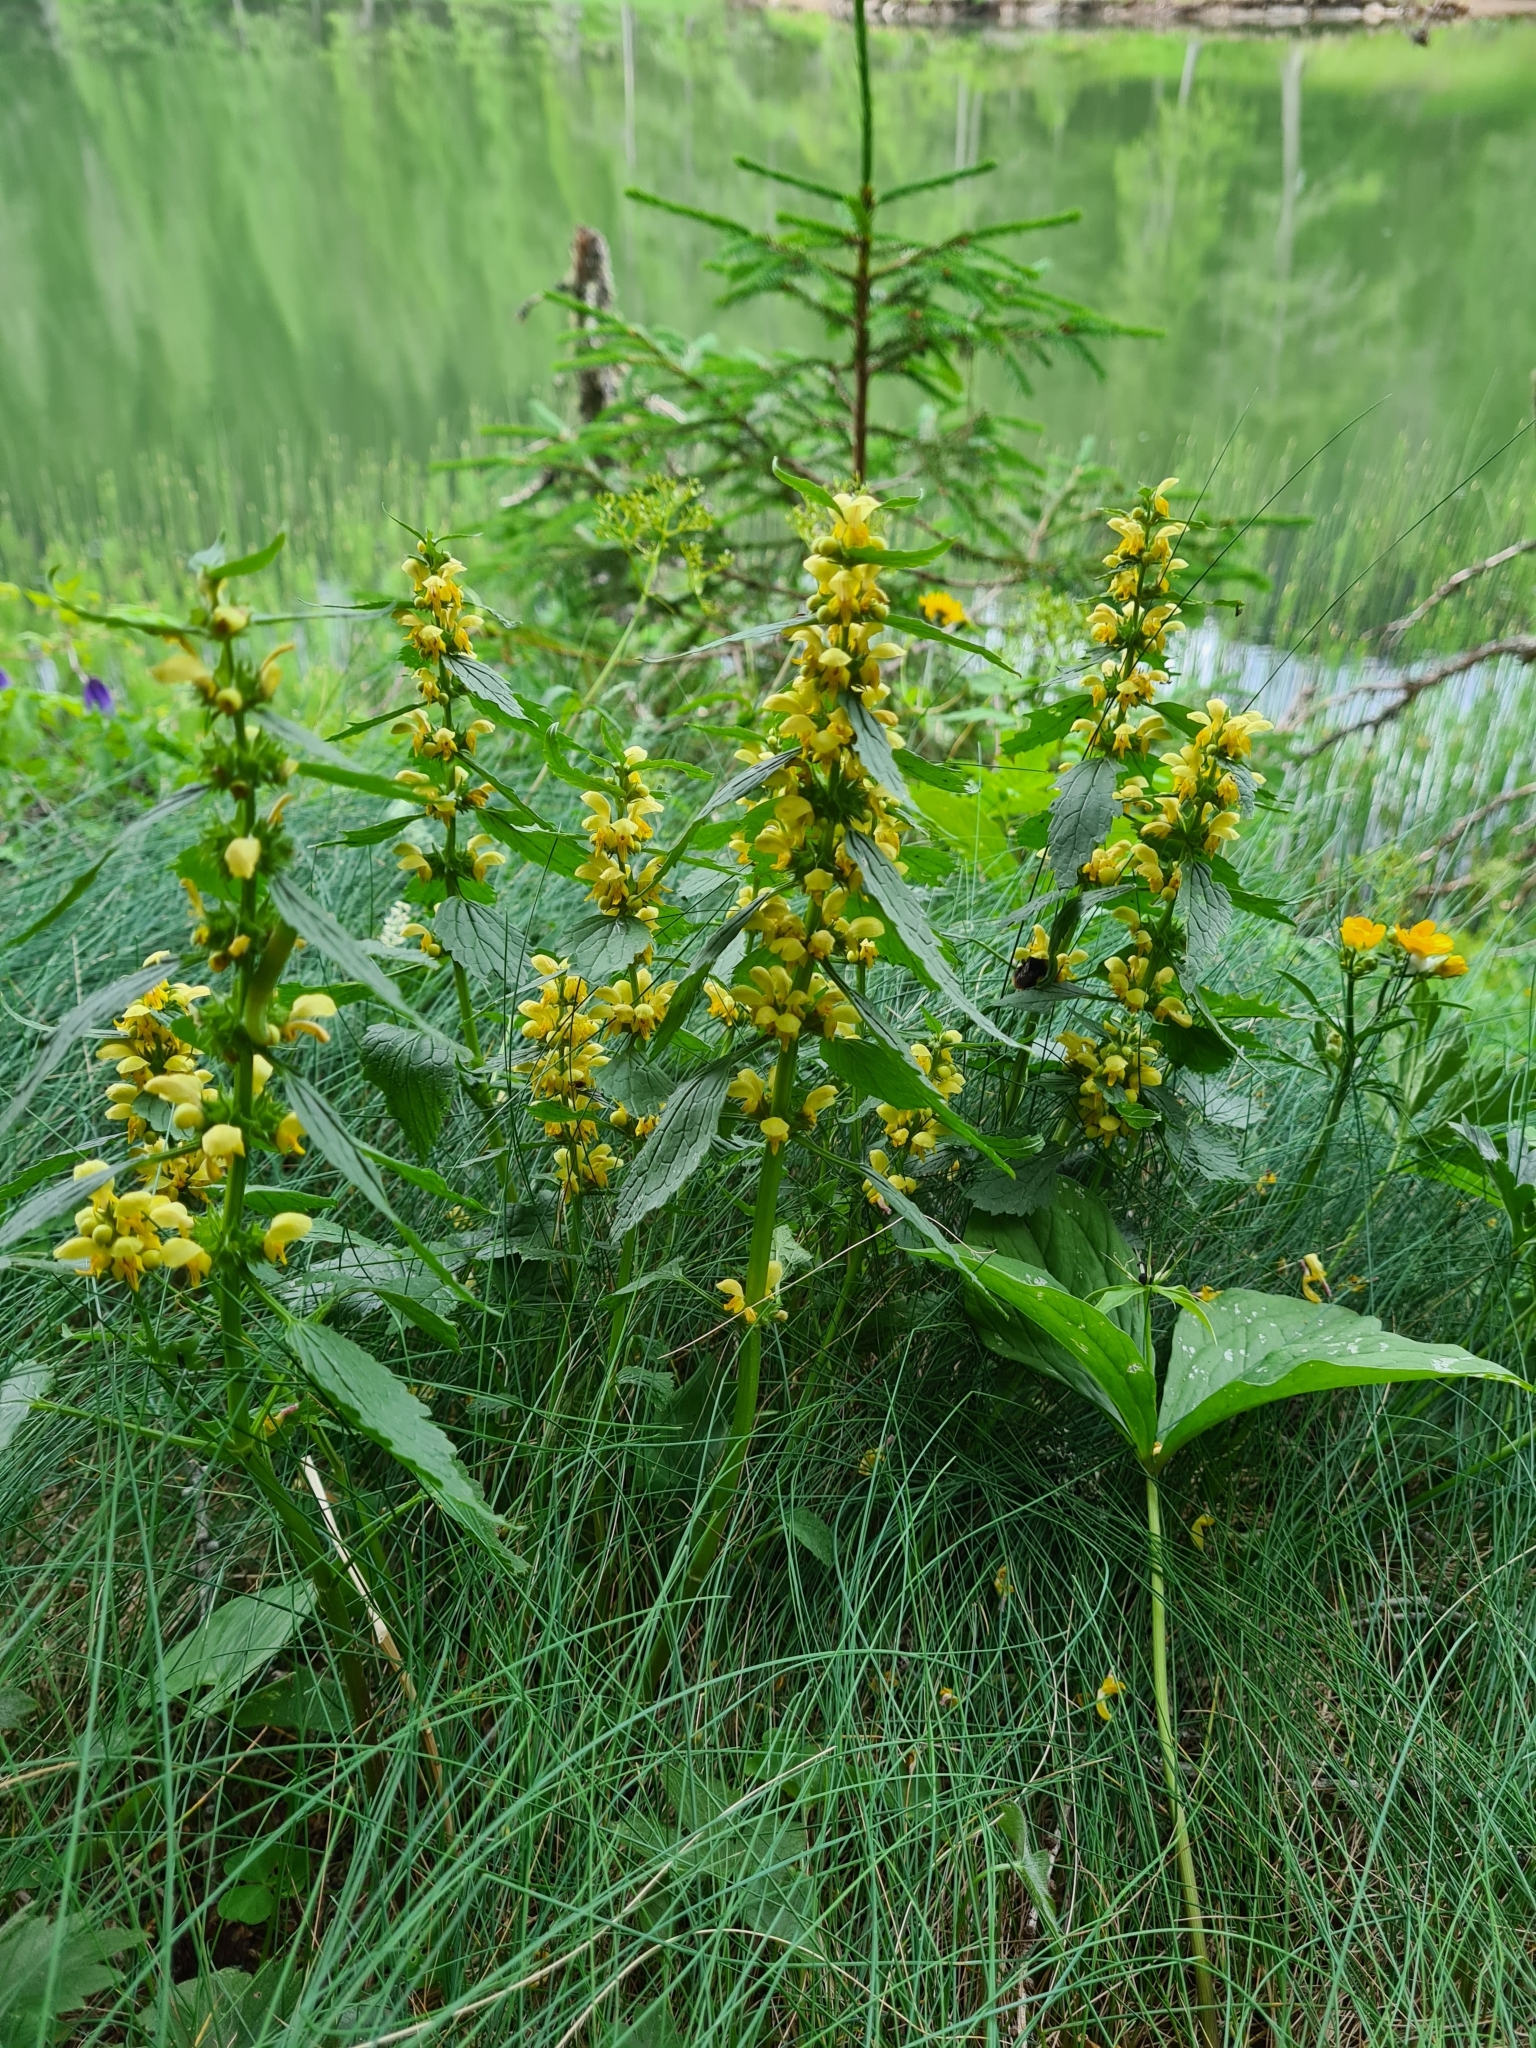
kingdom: Plantae
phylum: Tracheophyta
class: Magnoliopsida
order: Lamiales
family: Lamiaceae
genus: Lamium
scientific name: Lamium galeobdolon
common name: Yellow archangel
